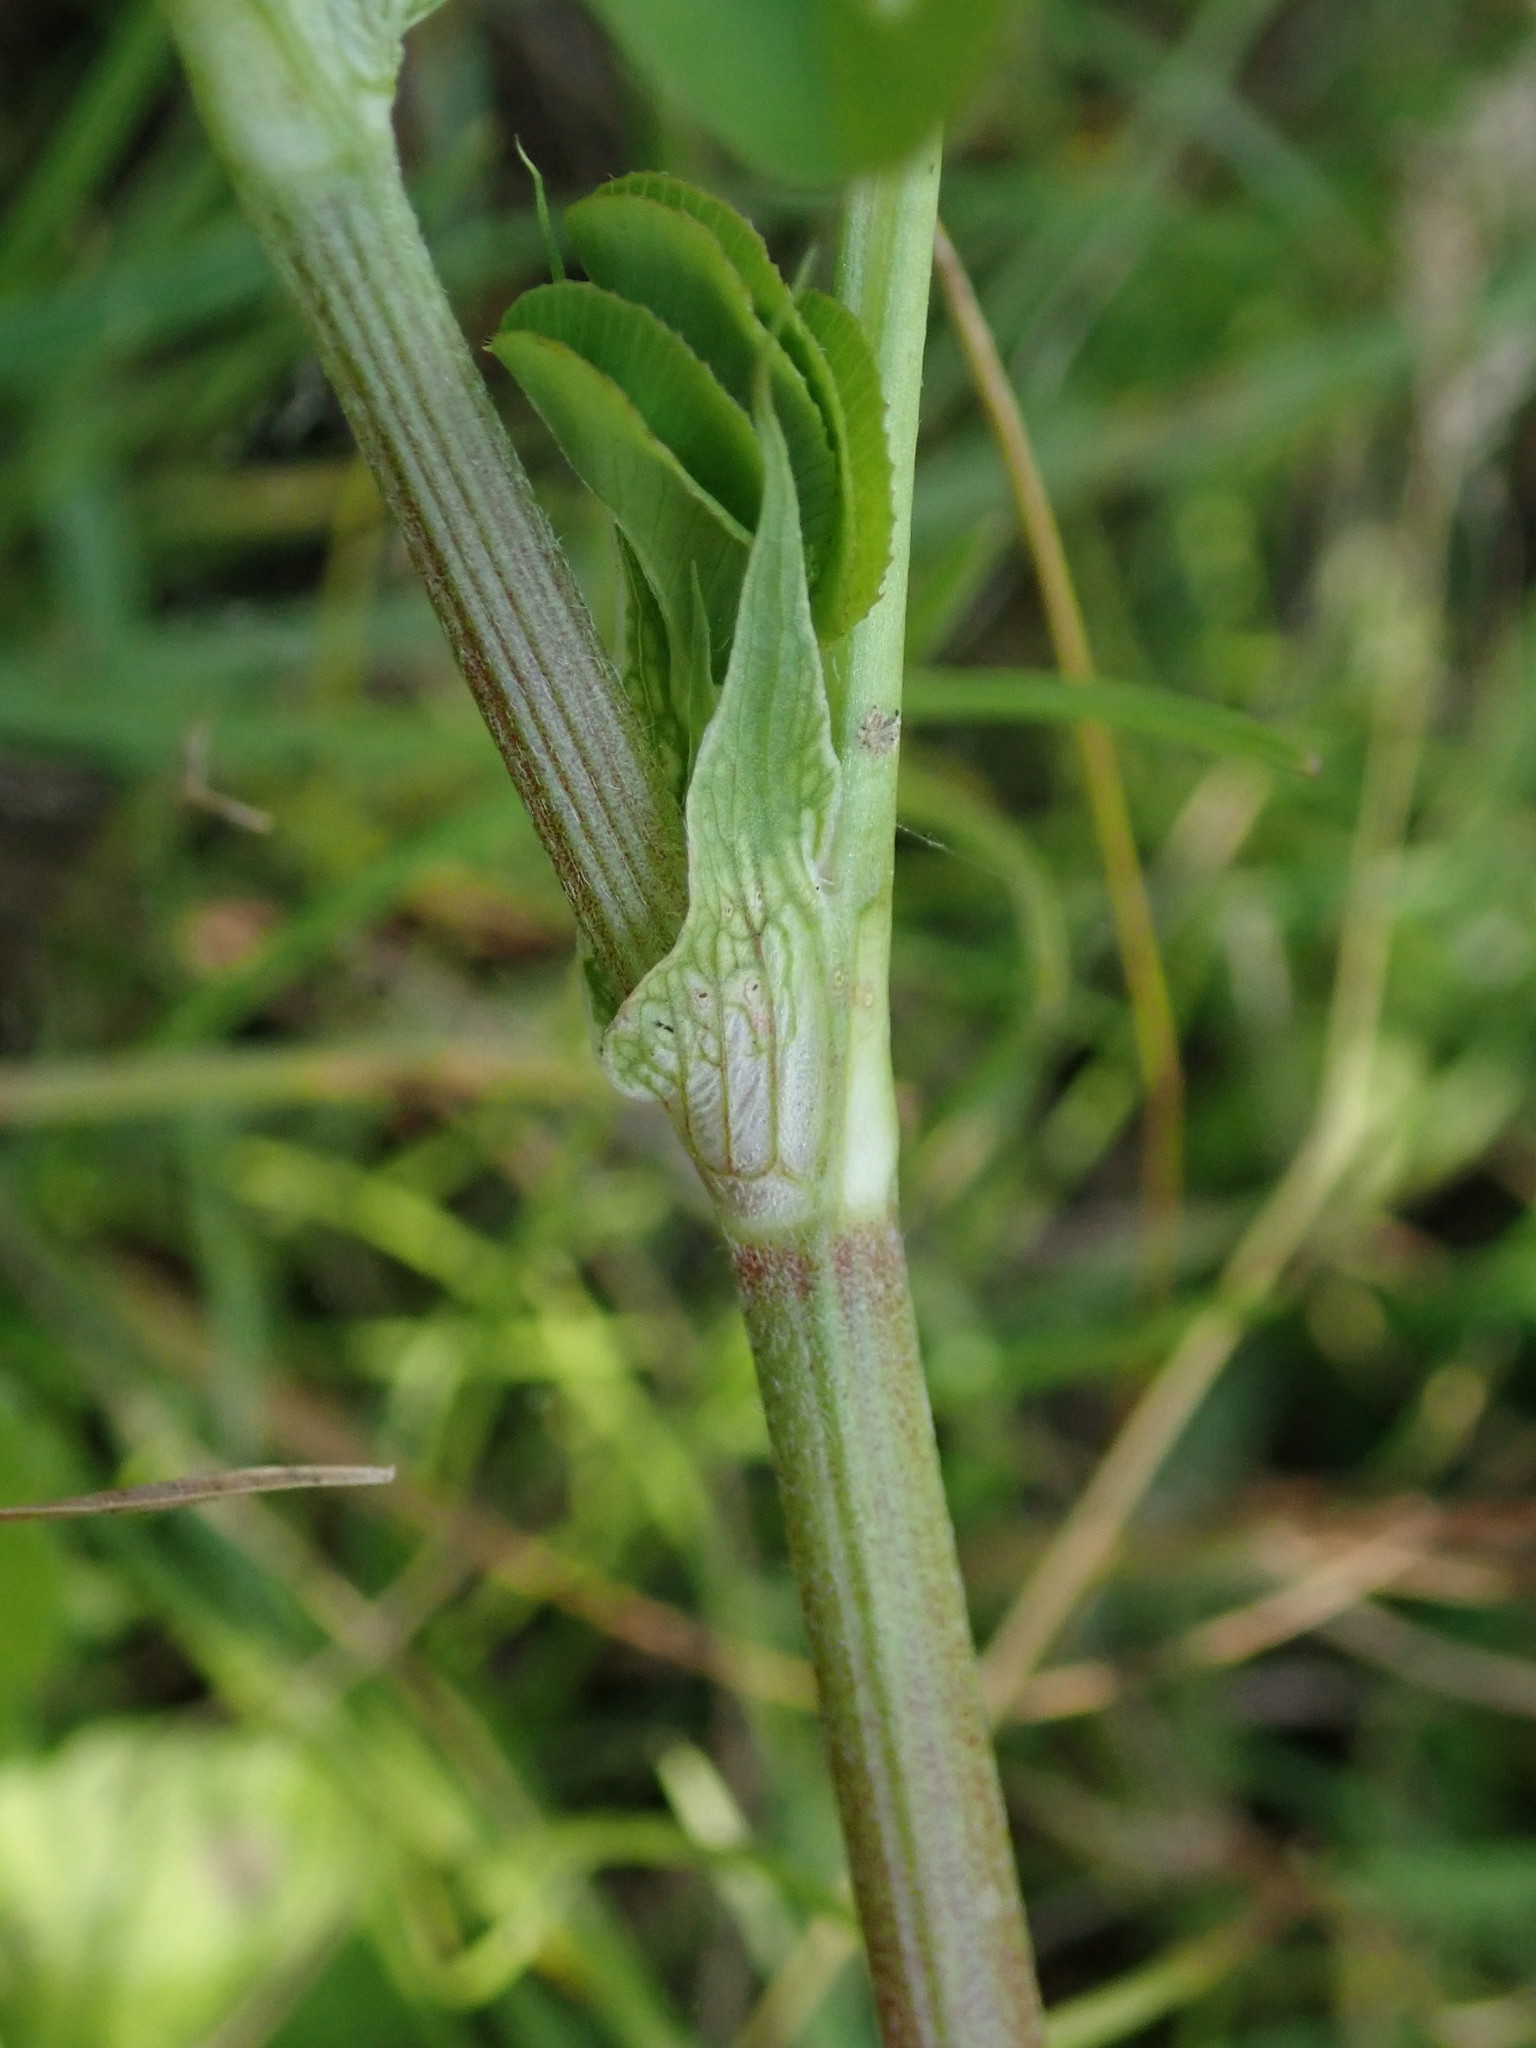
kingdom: Plantae
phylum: Tracheophyta
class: Magnoliopsida
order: Fabales
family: Fabaceae
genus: Trifolium
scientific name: Trifolium hybridum
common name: Alsike clover
